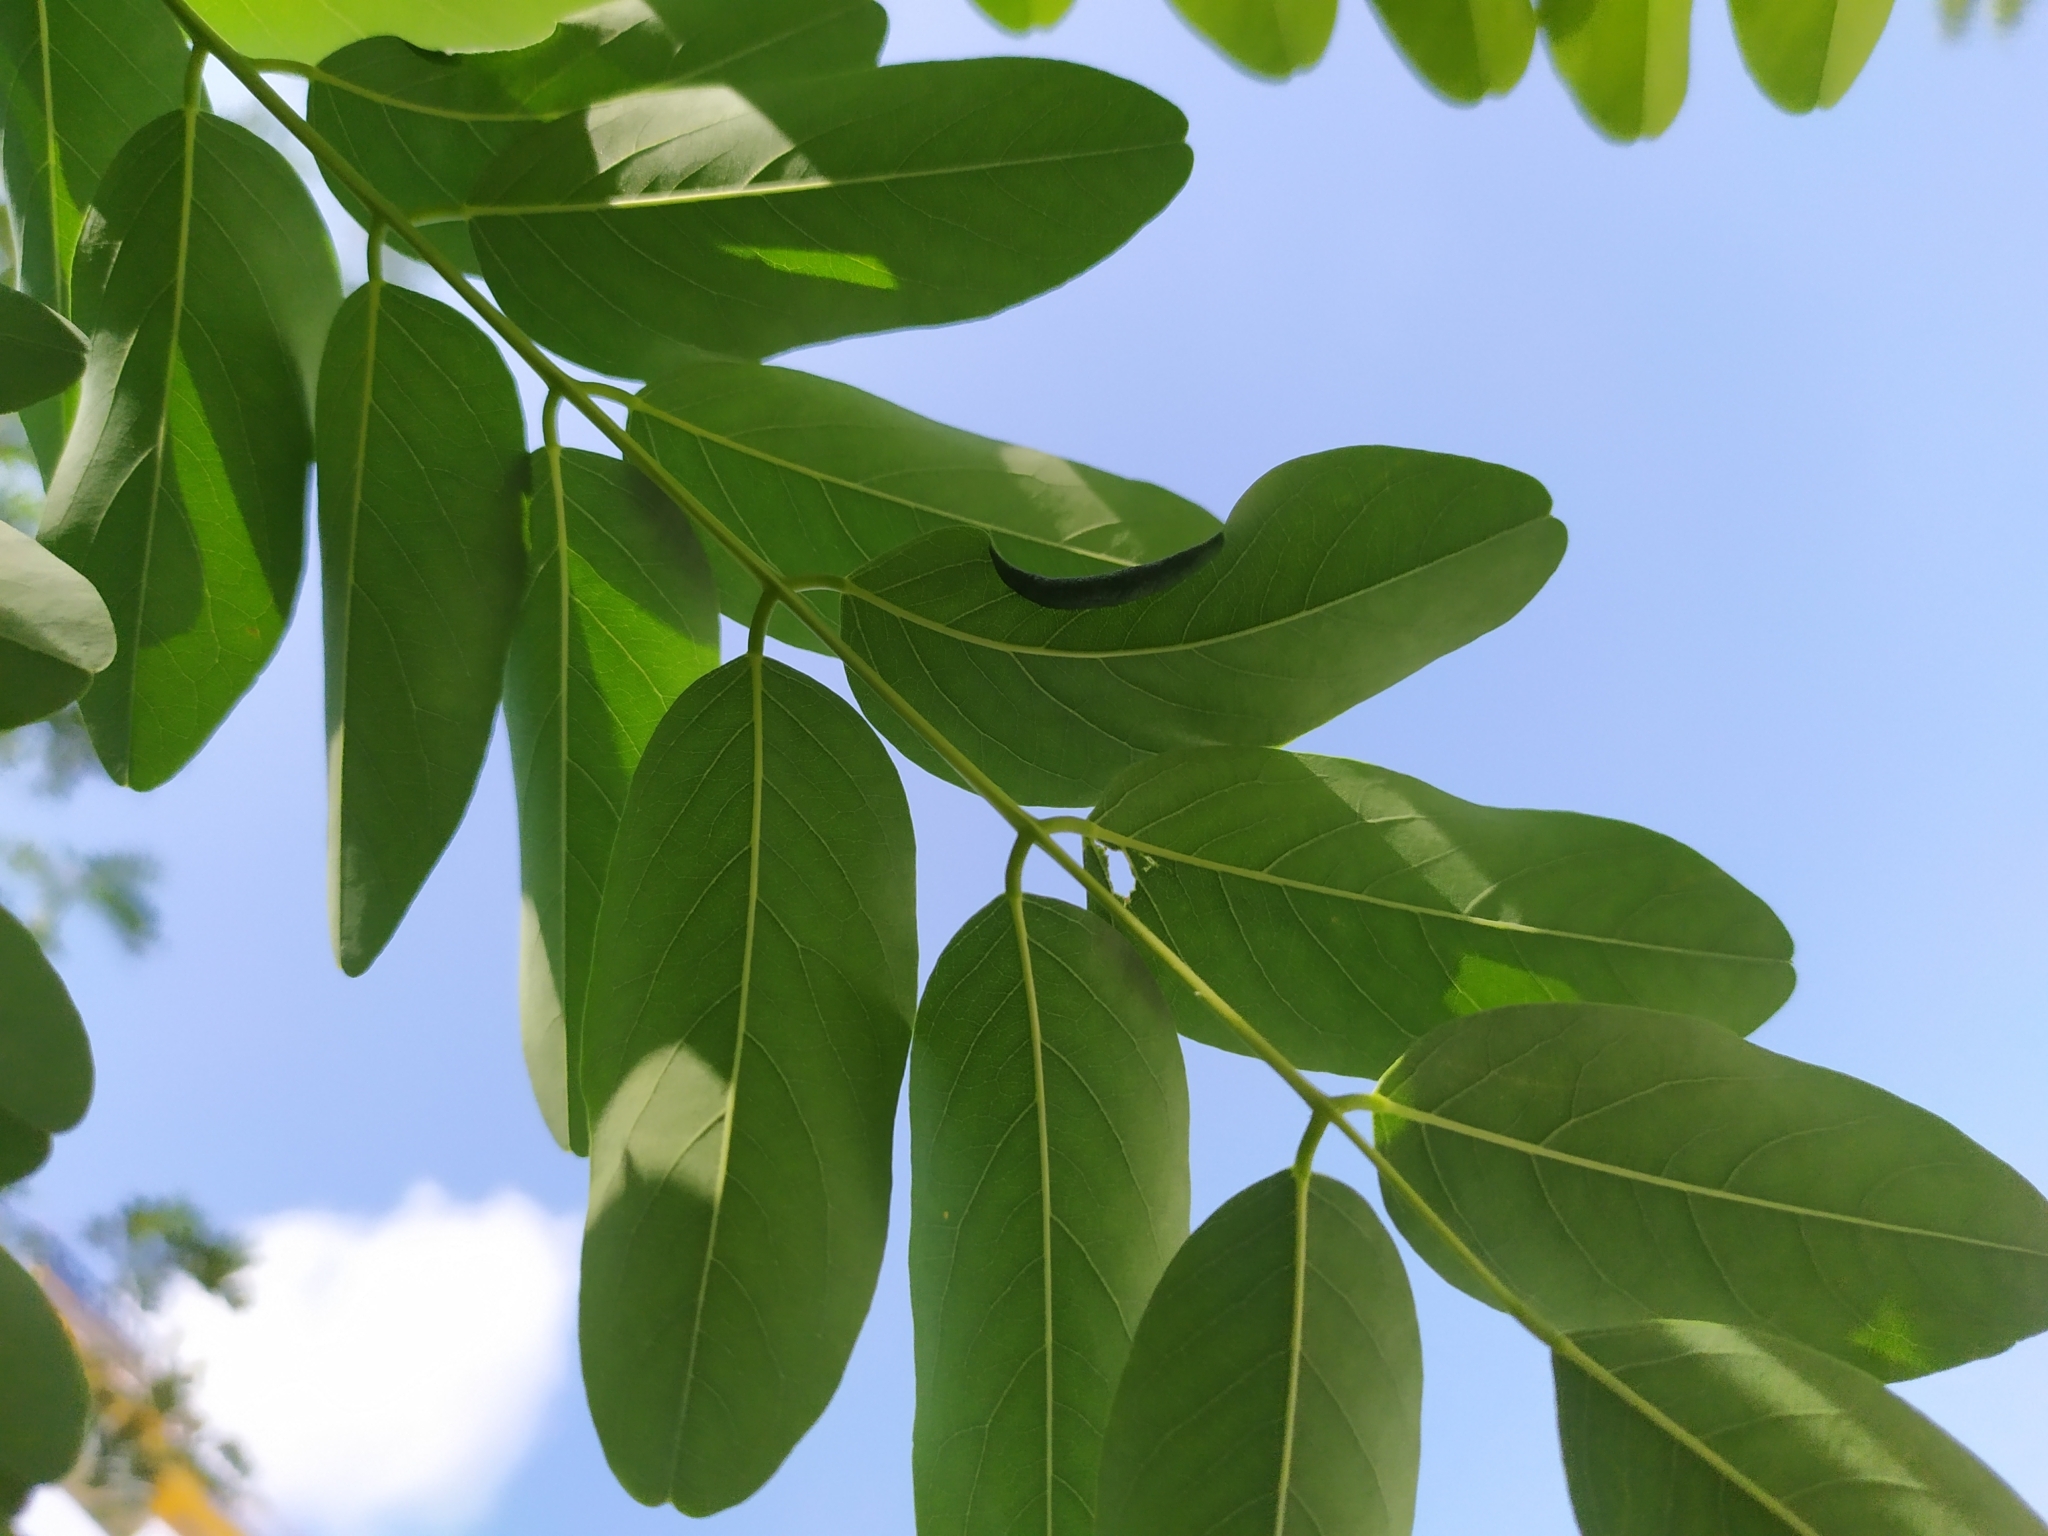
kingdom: Animalia
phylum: Arthropoda
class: Insecta
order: Diptera
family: Cecidomyiidae
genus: Obolodiplosis
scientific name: Obolodiplosis robiniae
